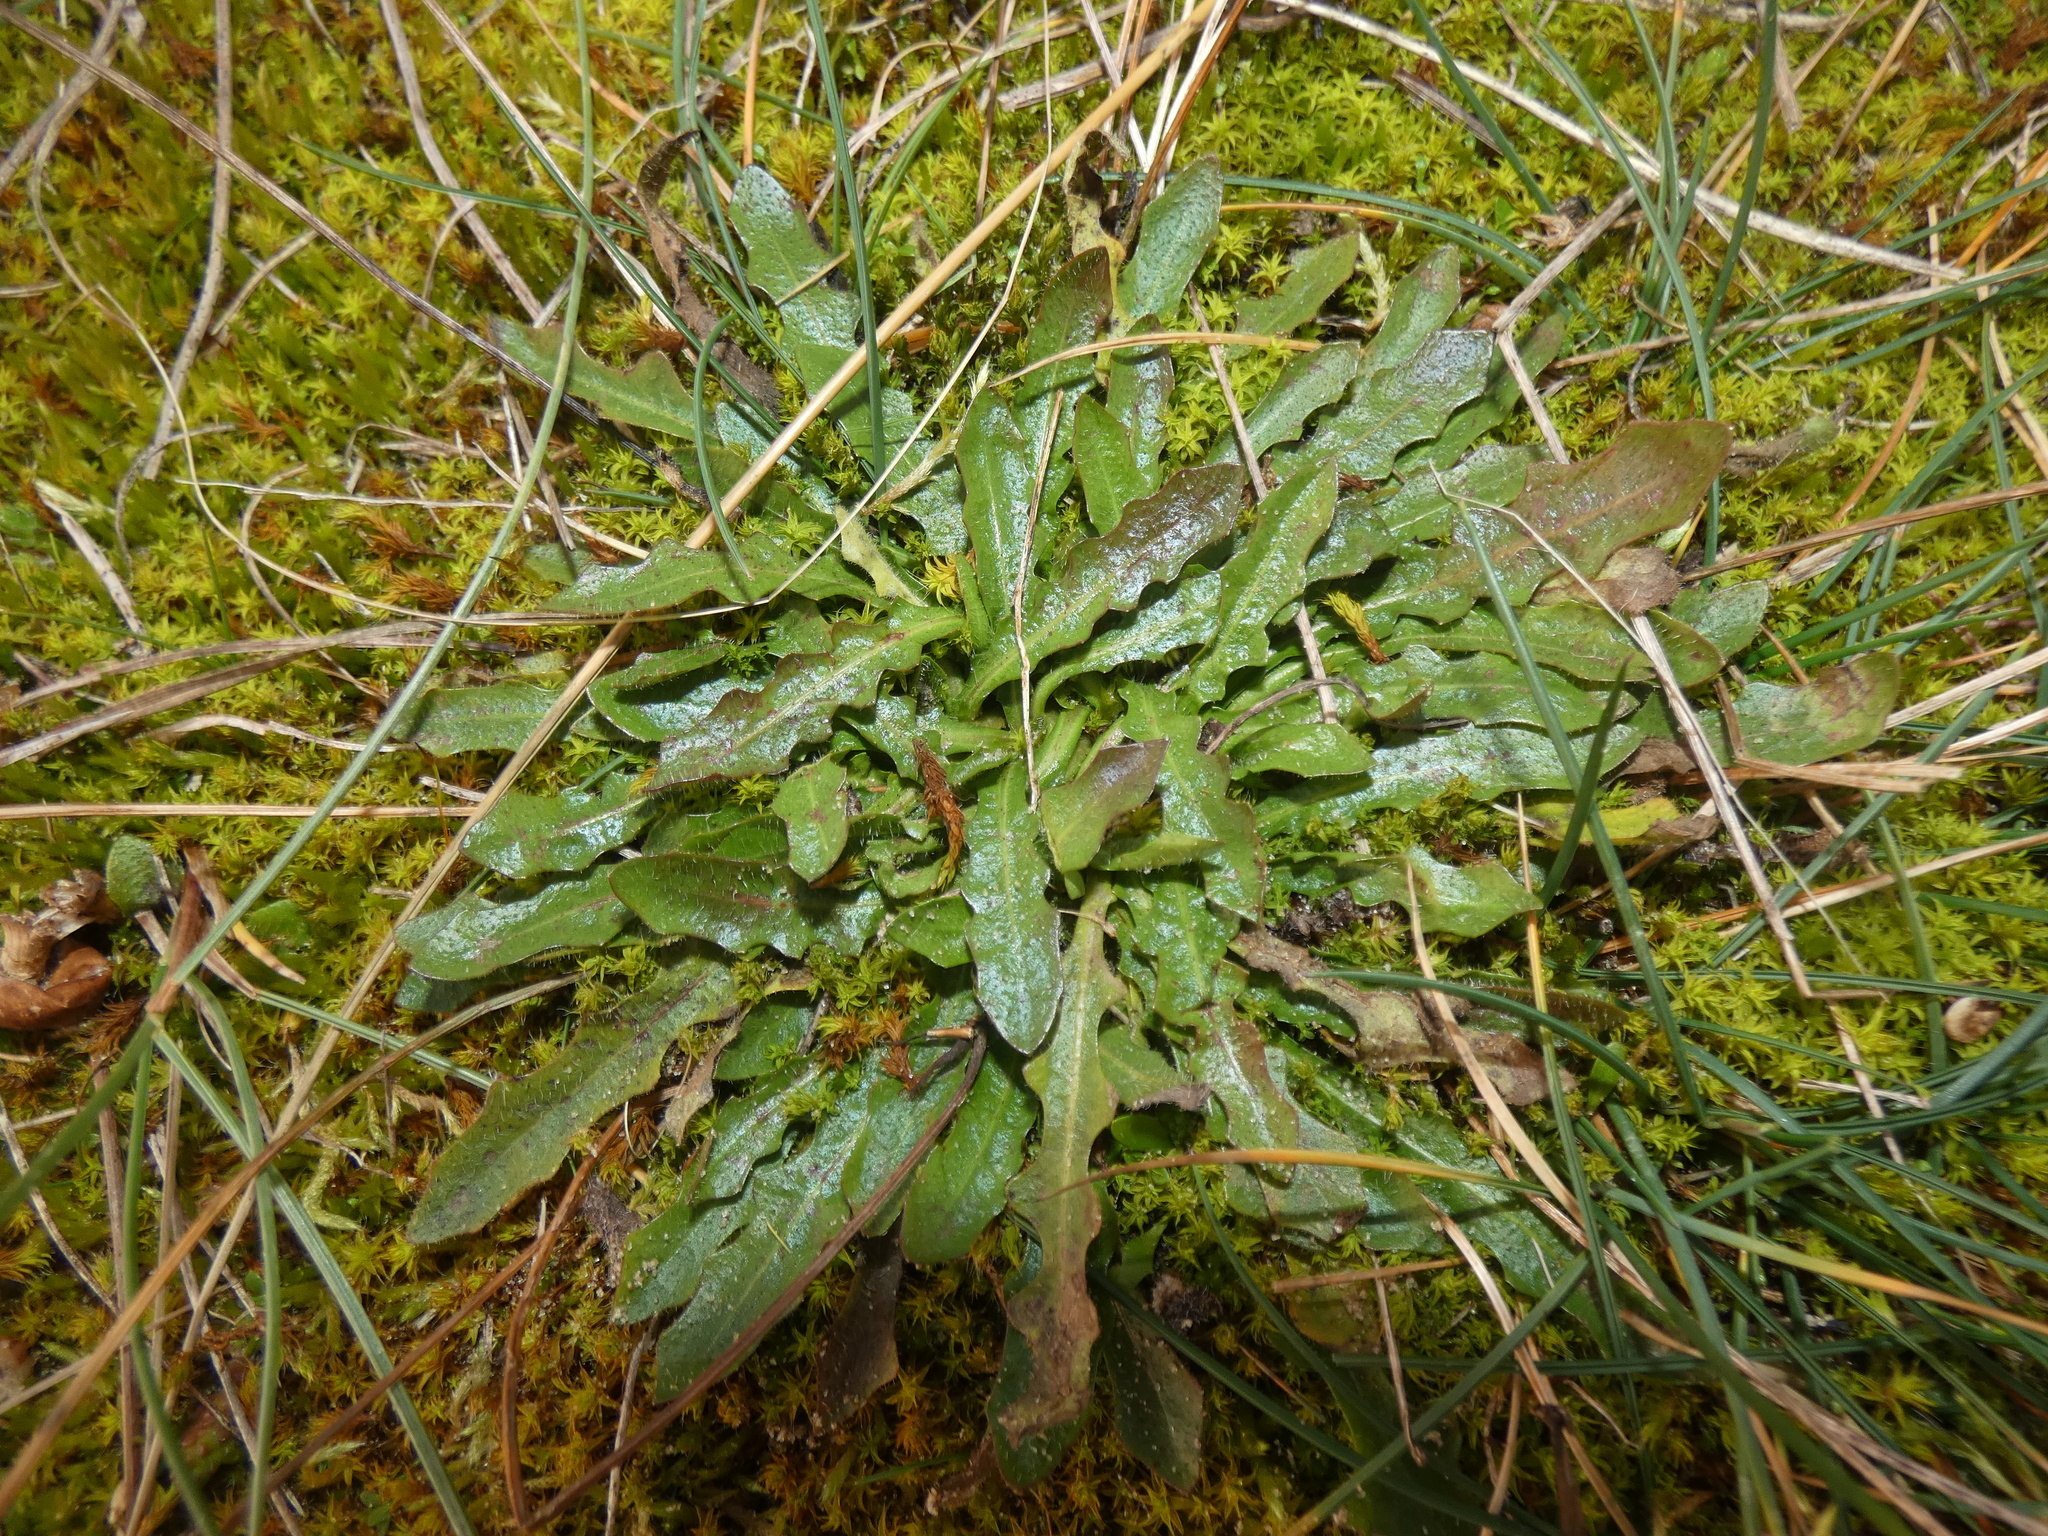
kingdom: Plantae
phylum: Tracheophyta
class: Magnoliopsida
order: Asterales
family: Asteraceae
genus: Hypochaeris
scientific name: Hypochaeris radicata
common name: Flatweed
